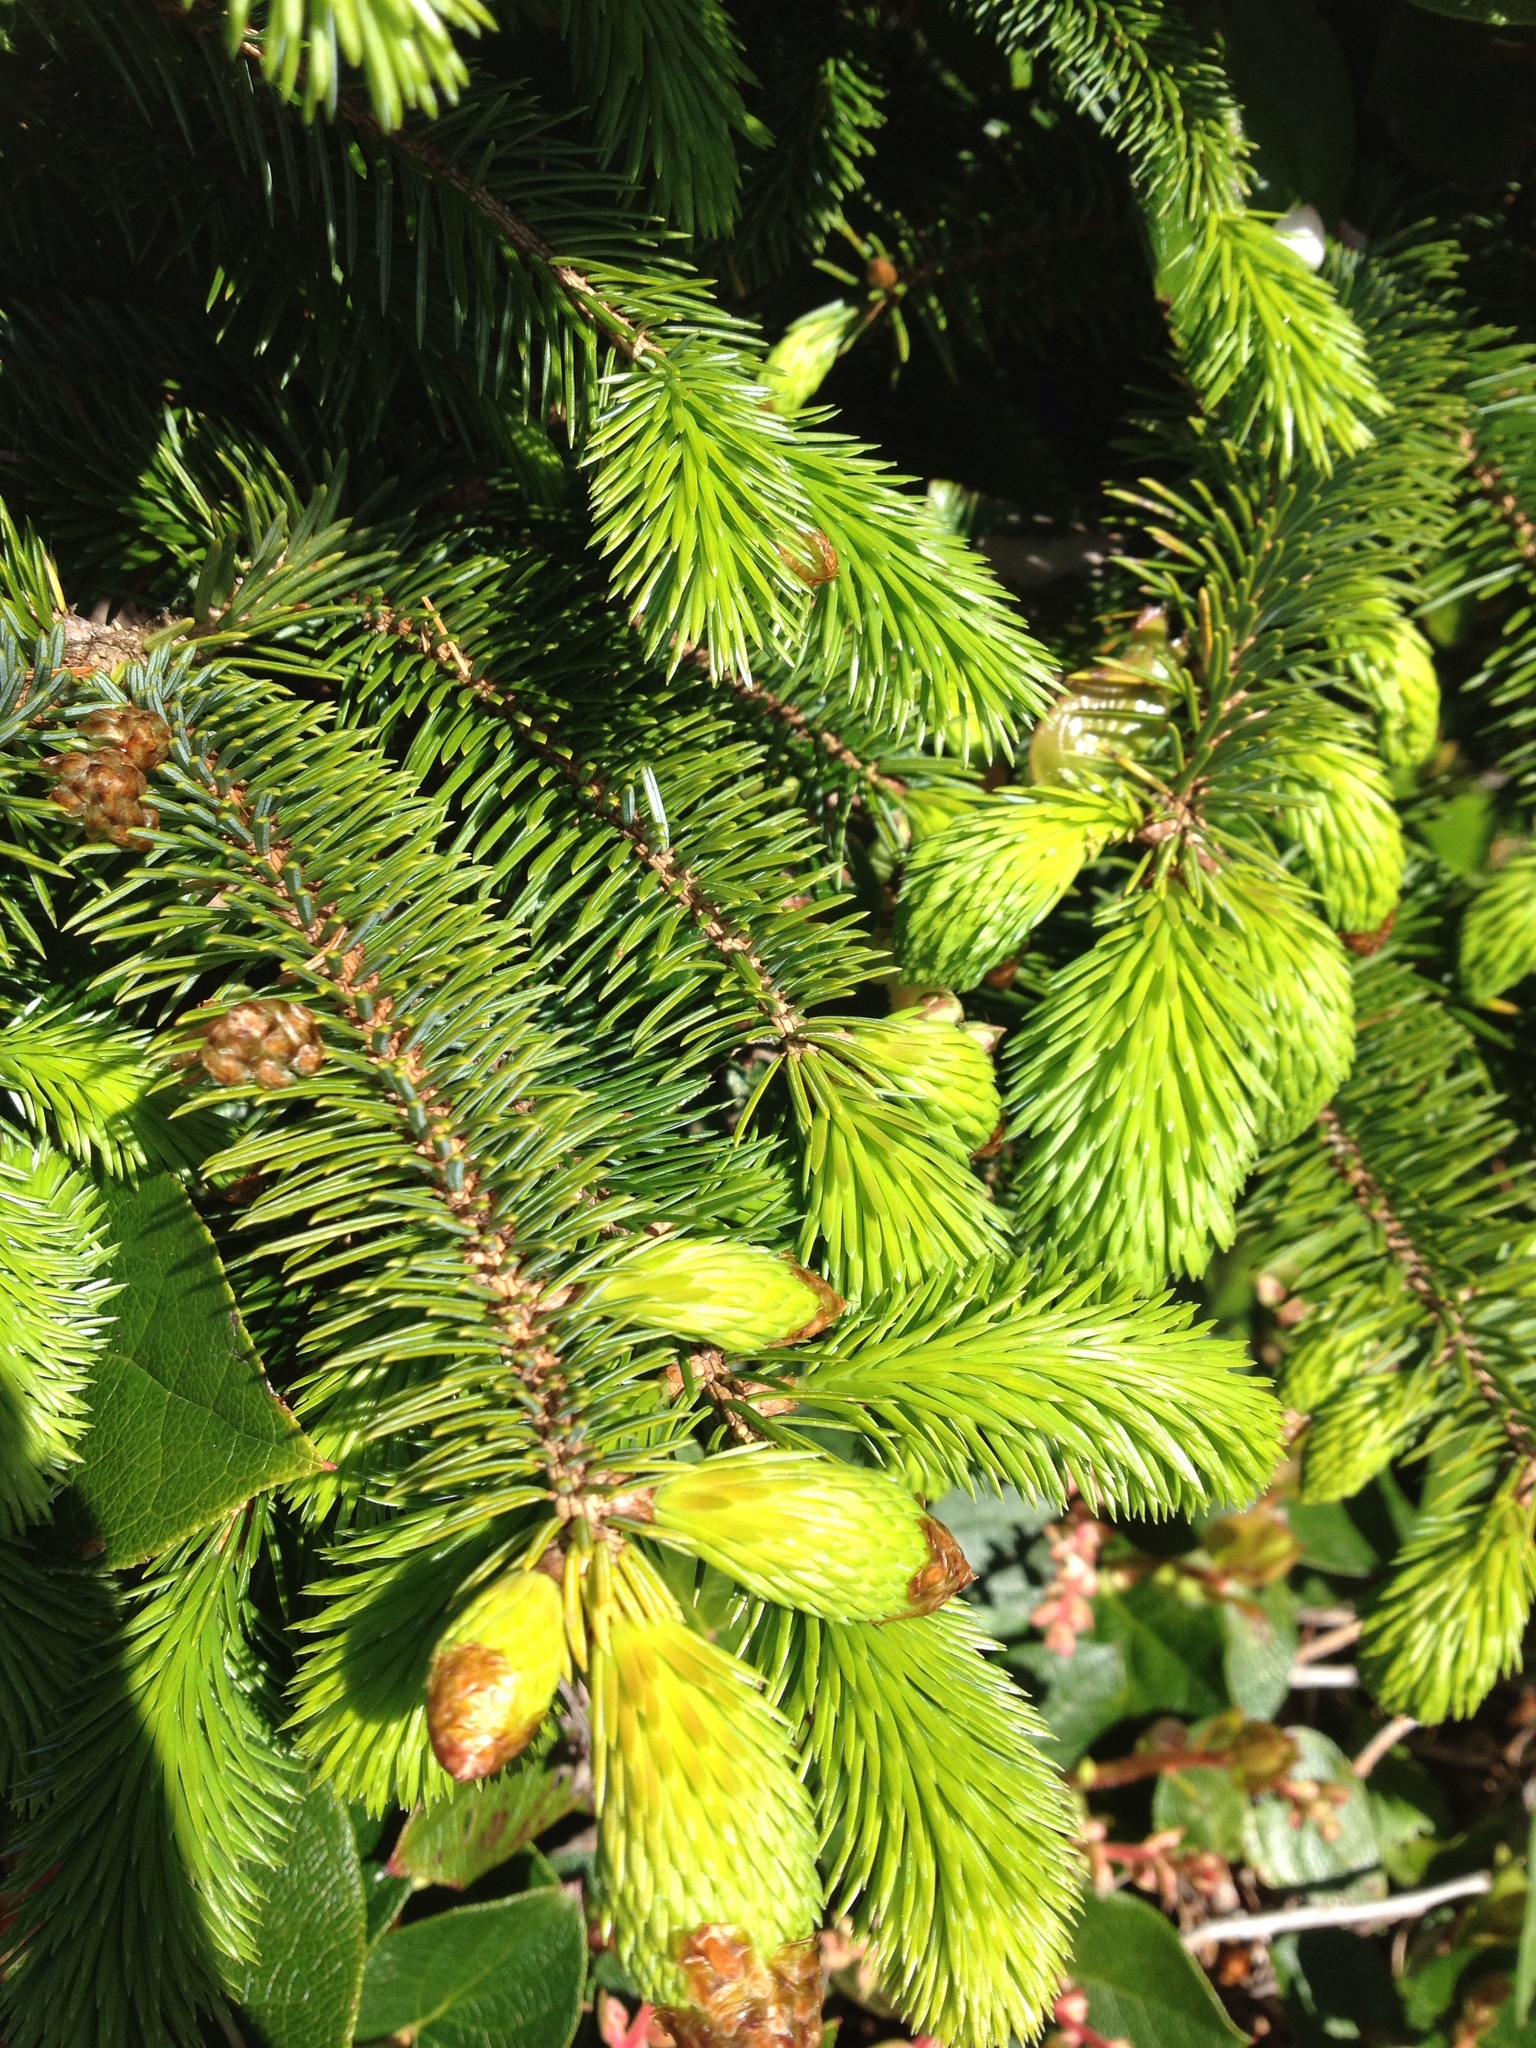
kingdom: Plantae
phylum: Tracheophyta
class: Pinopsida
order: Pinales
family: Pinaceae
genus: Picea
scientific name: Picea sitchensis
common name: Sitka spruce
